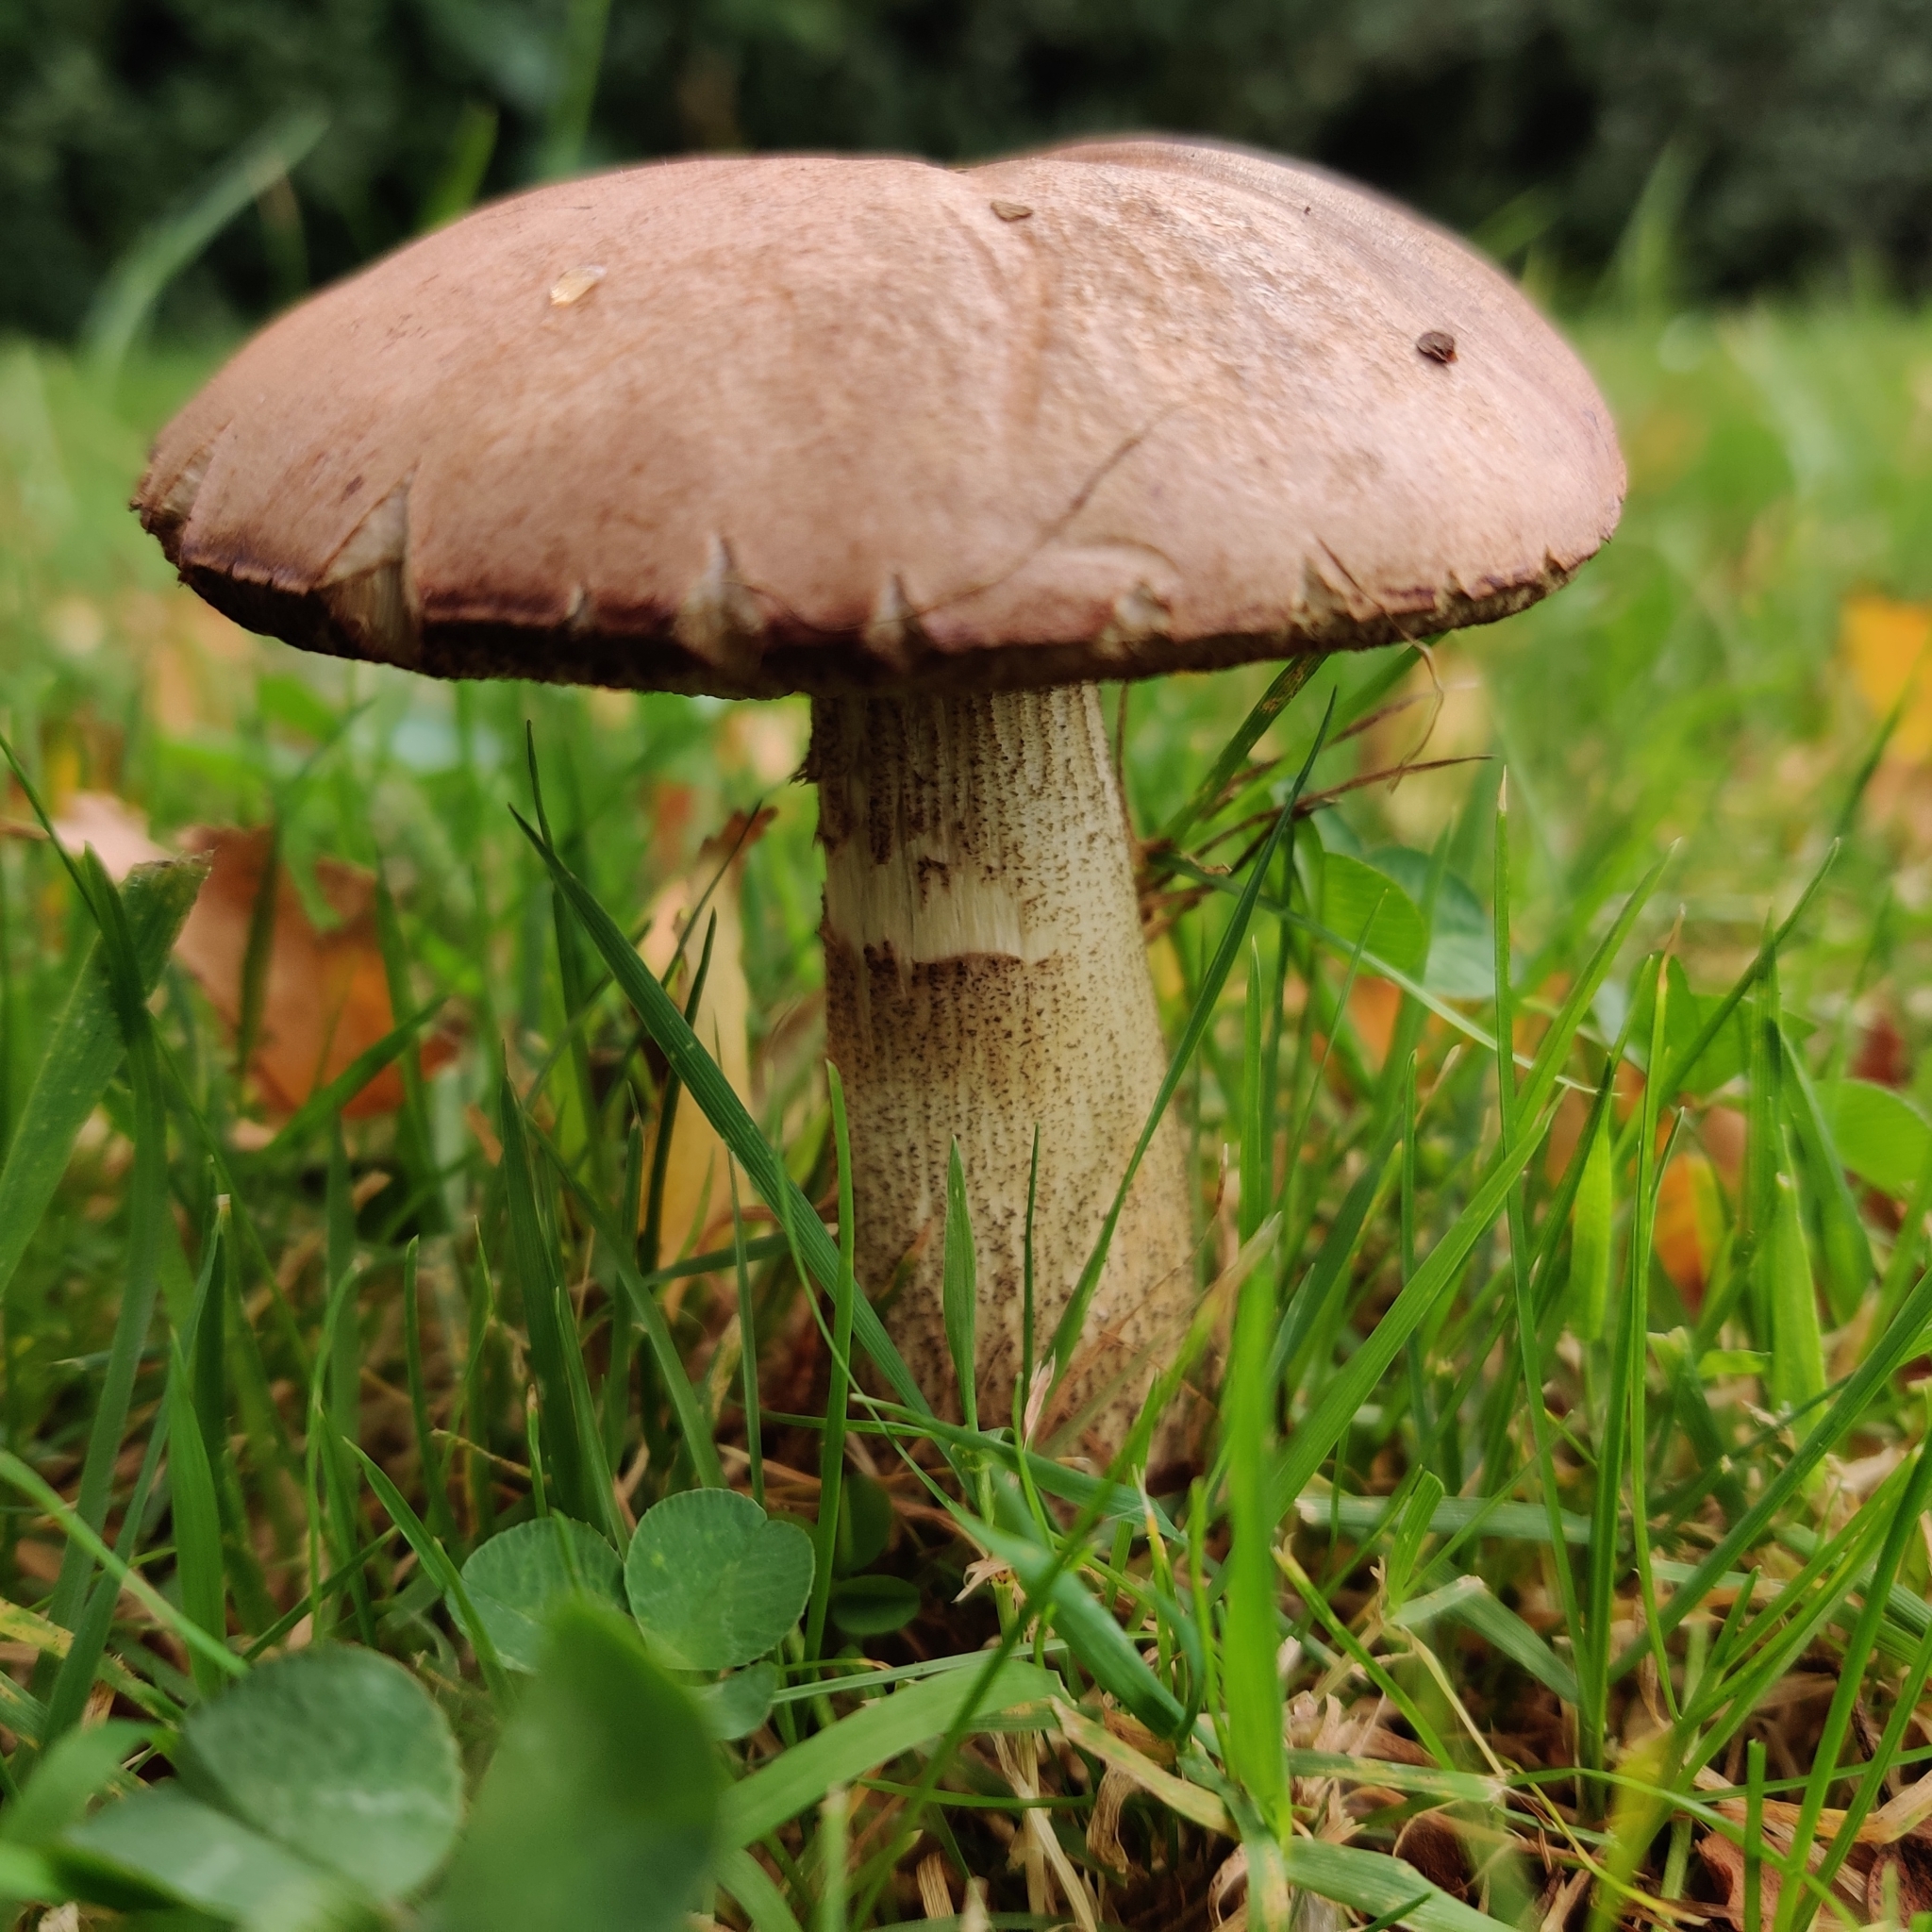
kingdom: Fungi
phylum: Basidiomycota
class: Agaricomycetes
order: Boletales
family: Boletaceae
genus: Leccinum
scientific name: Leccinum scabrum
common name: Blushing bolete
